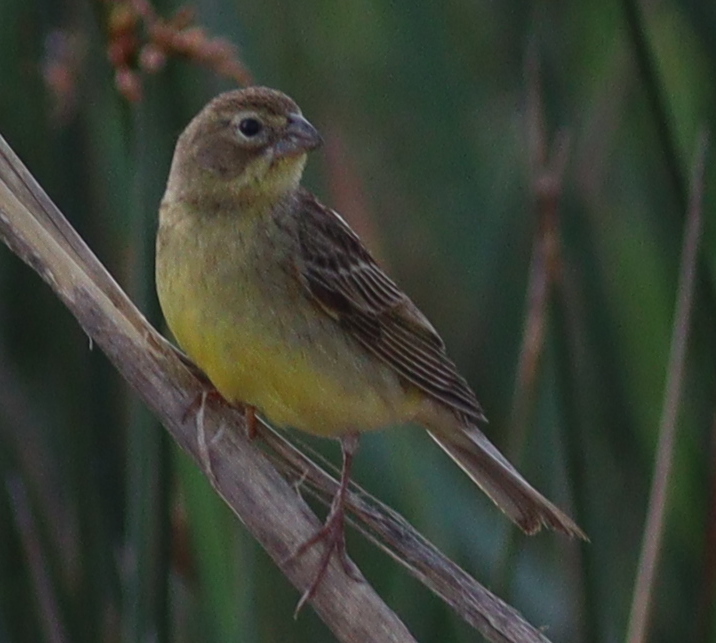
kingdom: Animalia
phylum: Chordata
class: Aves
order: Passeriformes
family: Thraupidae
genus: Sicalis
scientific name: Sicalis luteola
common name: Grassland yellow-finch
